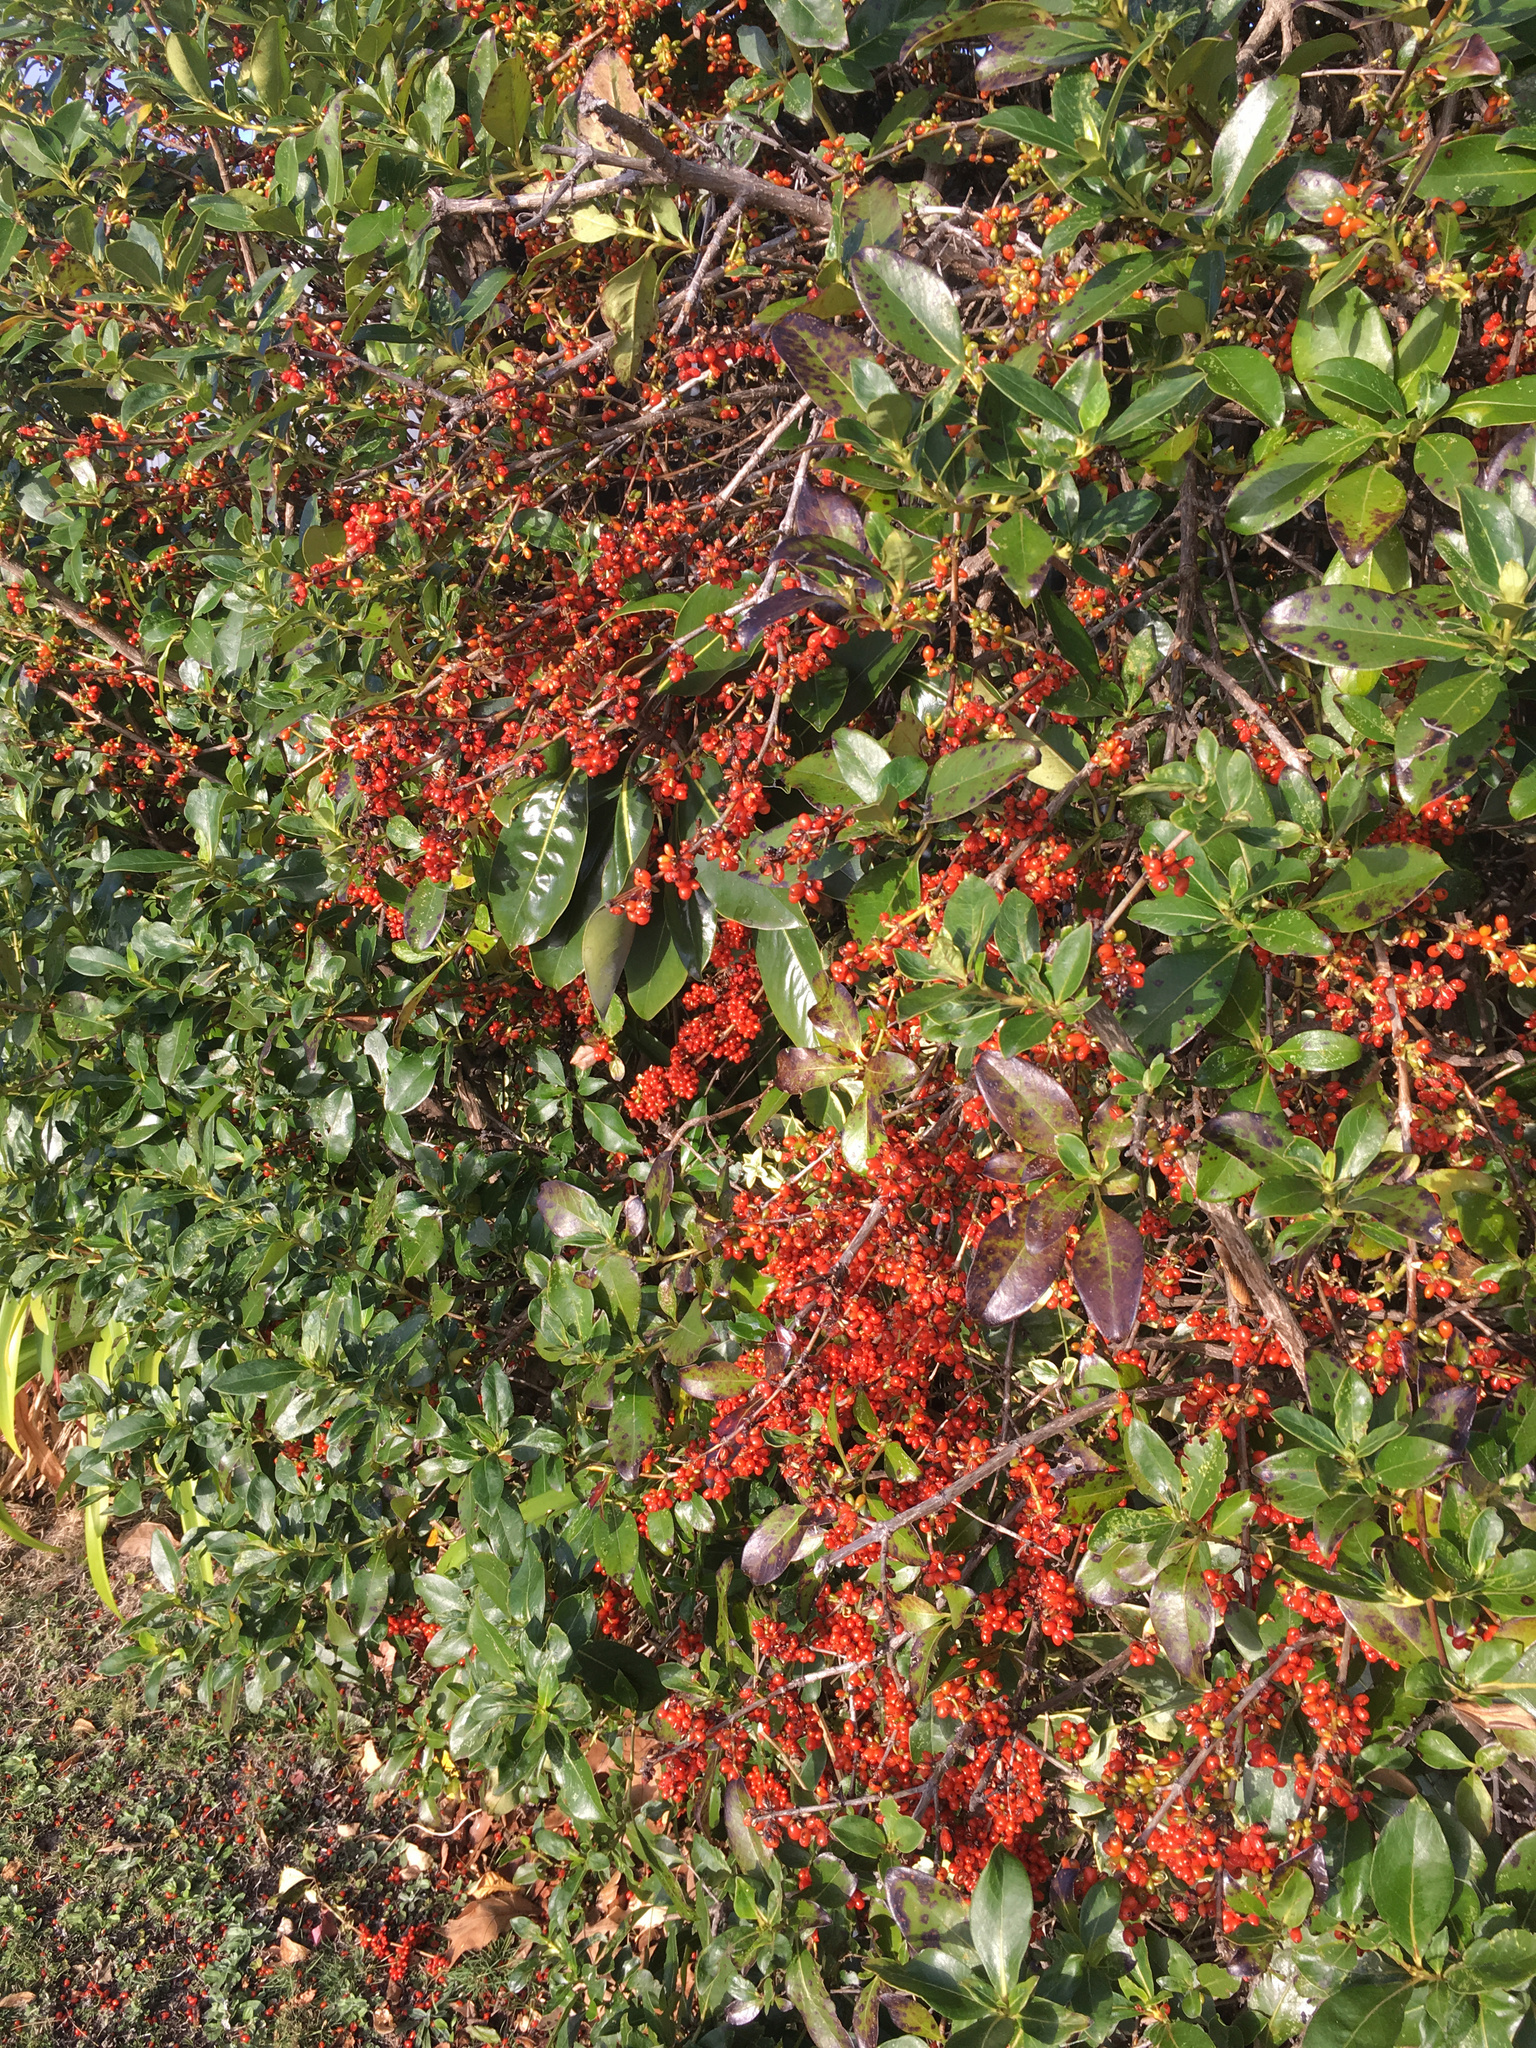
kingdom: Plantae
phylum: Tracheophyta
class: Magnoliopsida
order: Gentianales
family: Rubiaceae
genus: Coprosma
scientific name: Coprosma robusta
